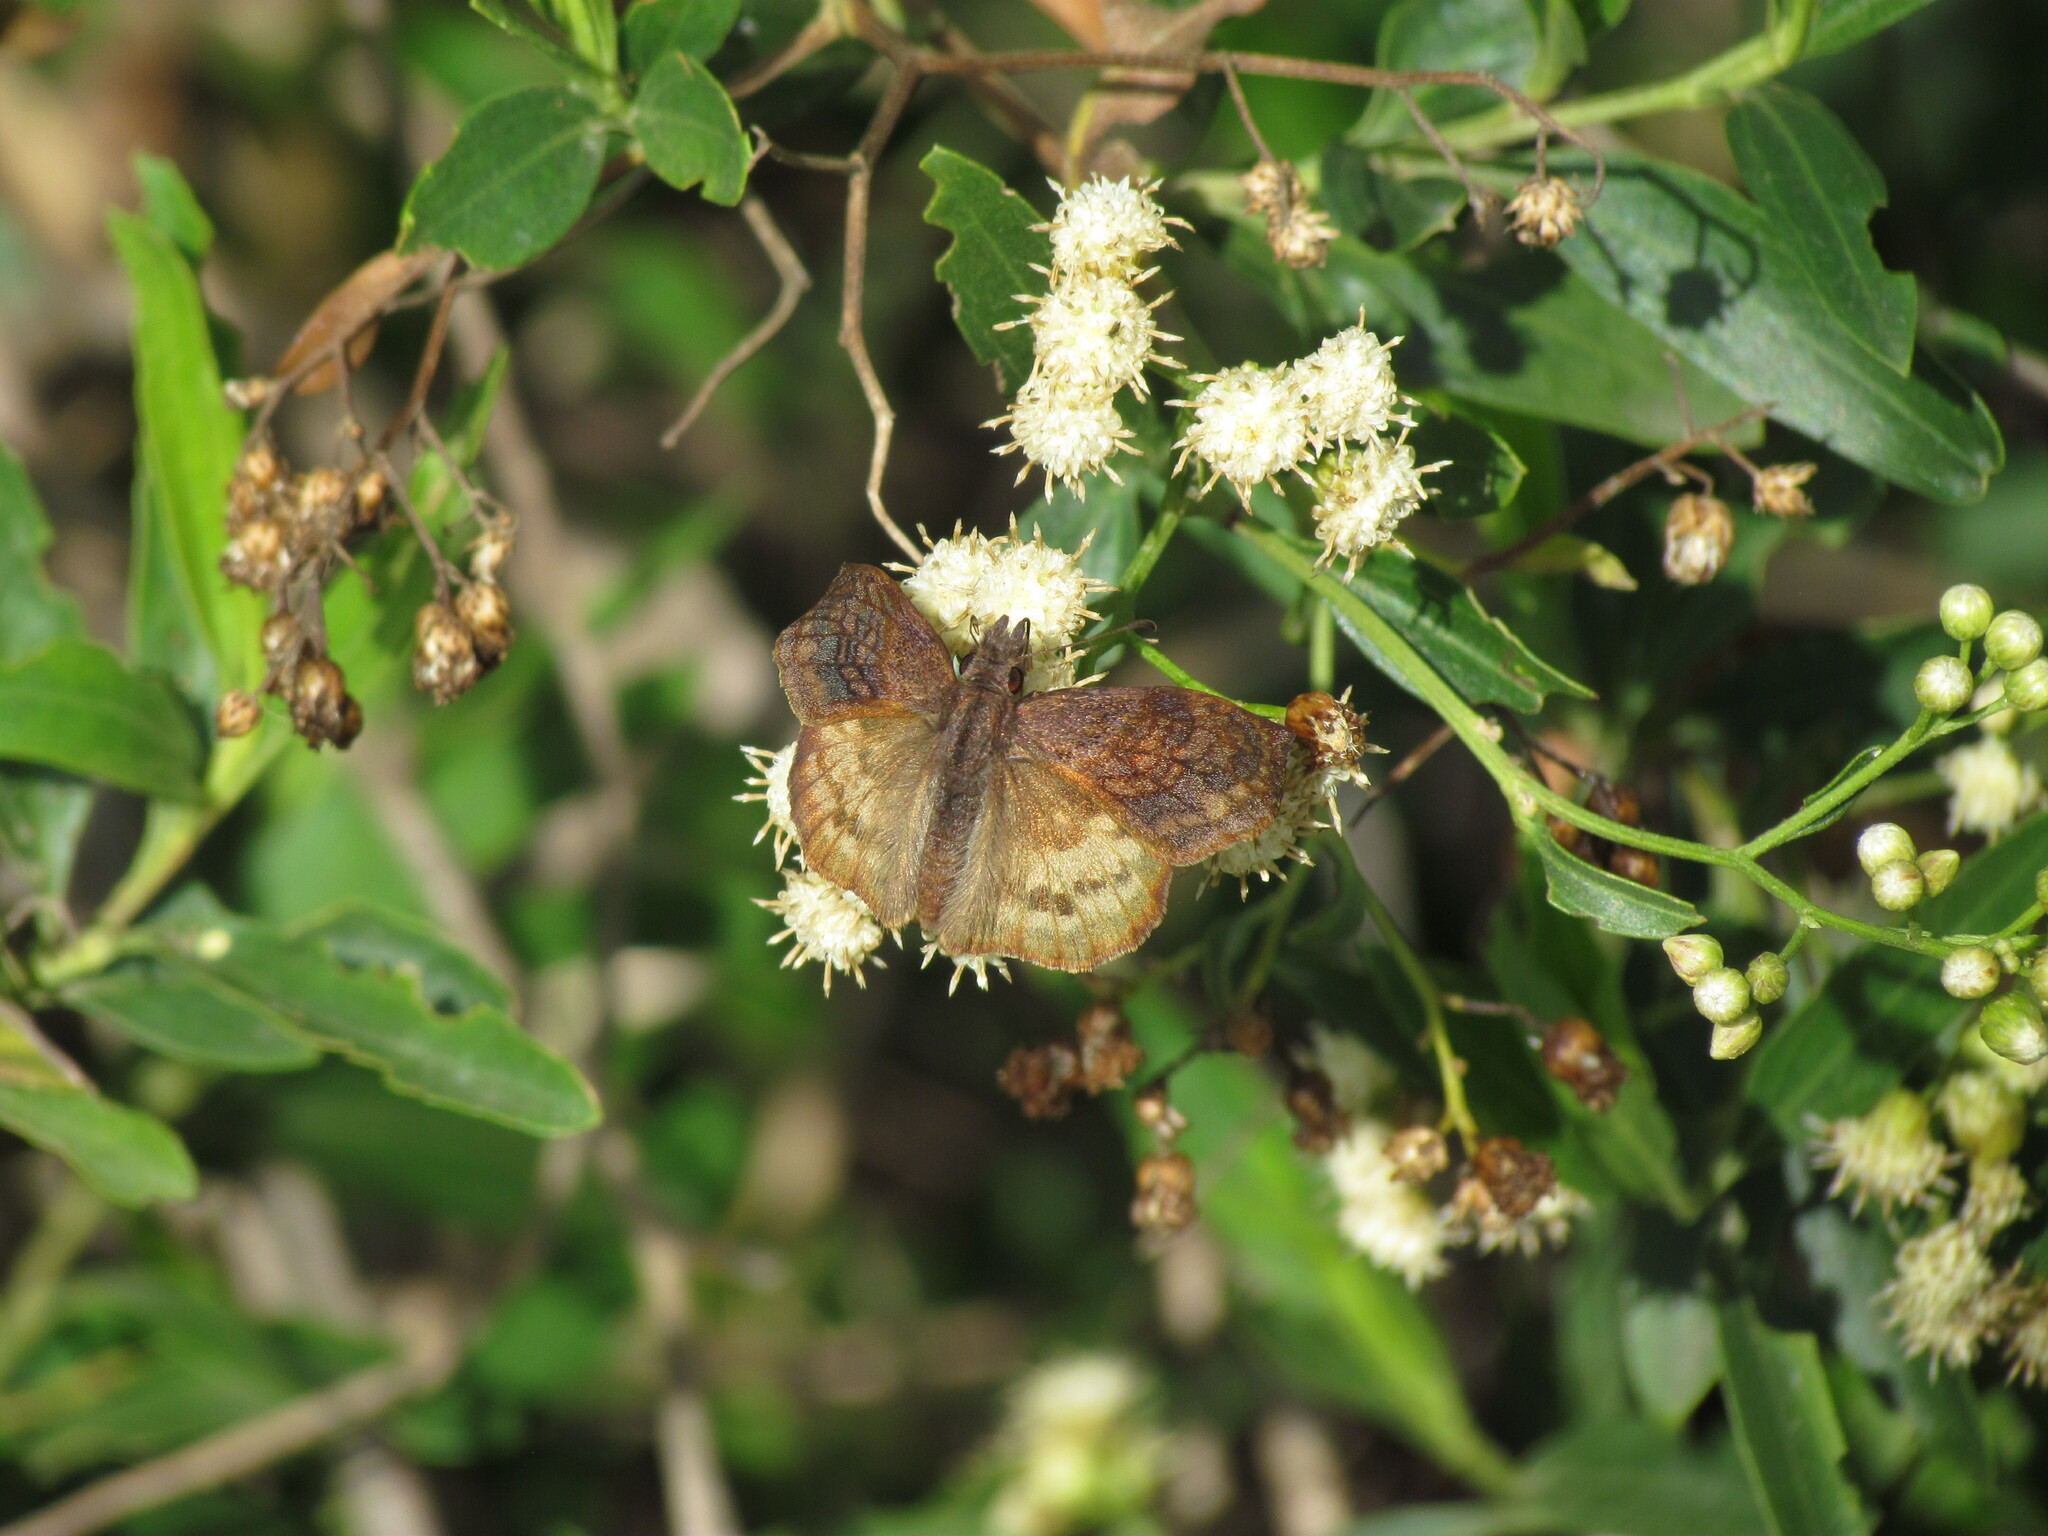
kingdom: Animalia
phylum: Arthropoda
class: Insecta
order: Lepidoptera
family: Hesperiidae
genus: Theagenes
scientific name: Theagenes dichrous
